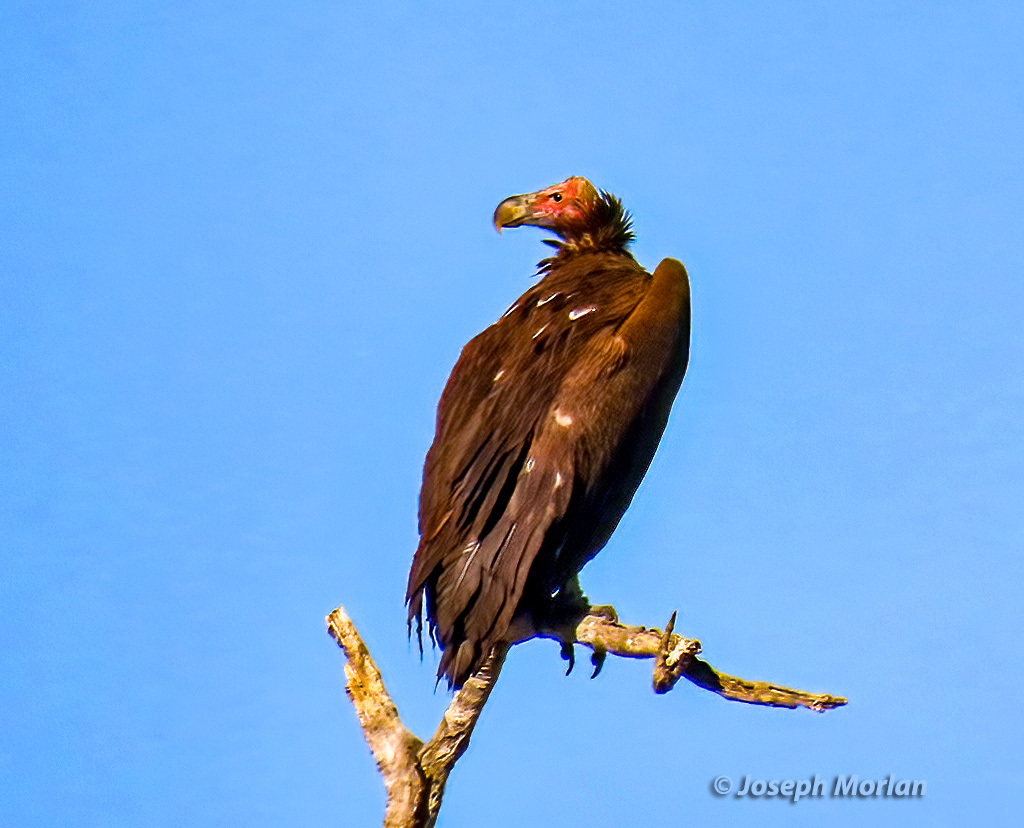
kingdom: Animalia
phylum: Chordata
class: Aves
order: Accipitriformes
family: Accipitridae
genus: Torgos
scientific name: Torgos tracheliotos
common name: Lappet-faced vulture
